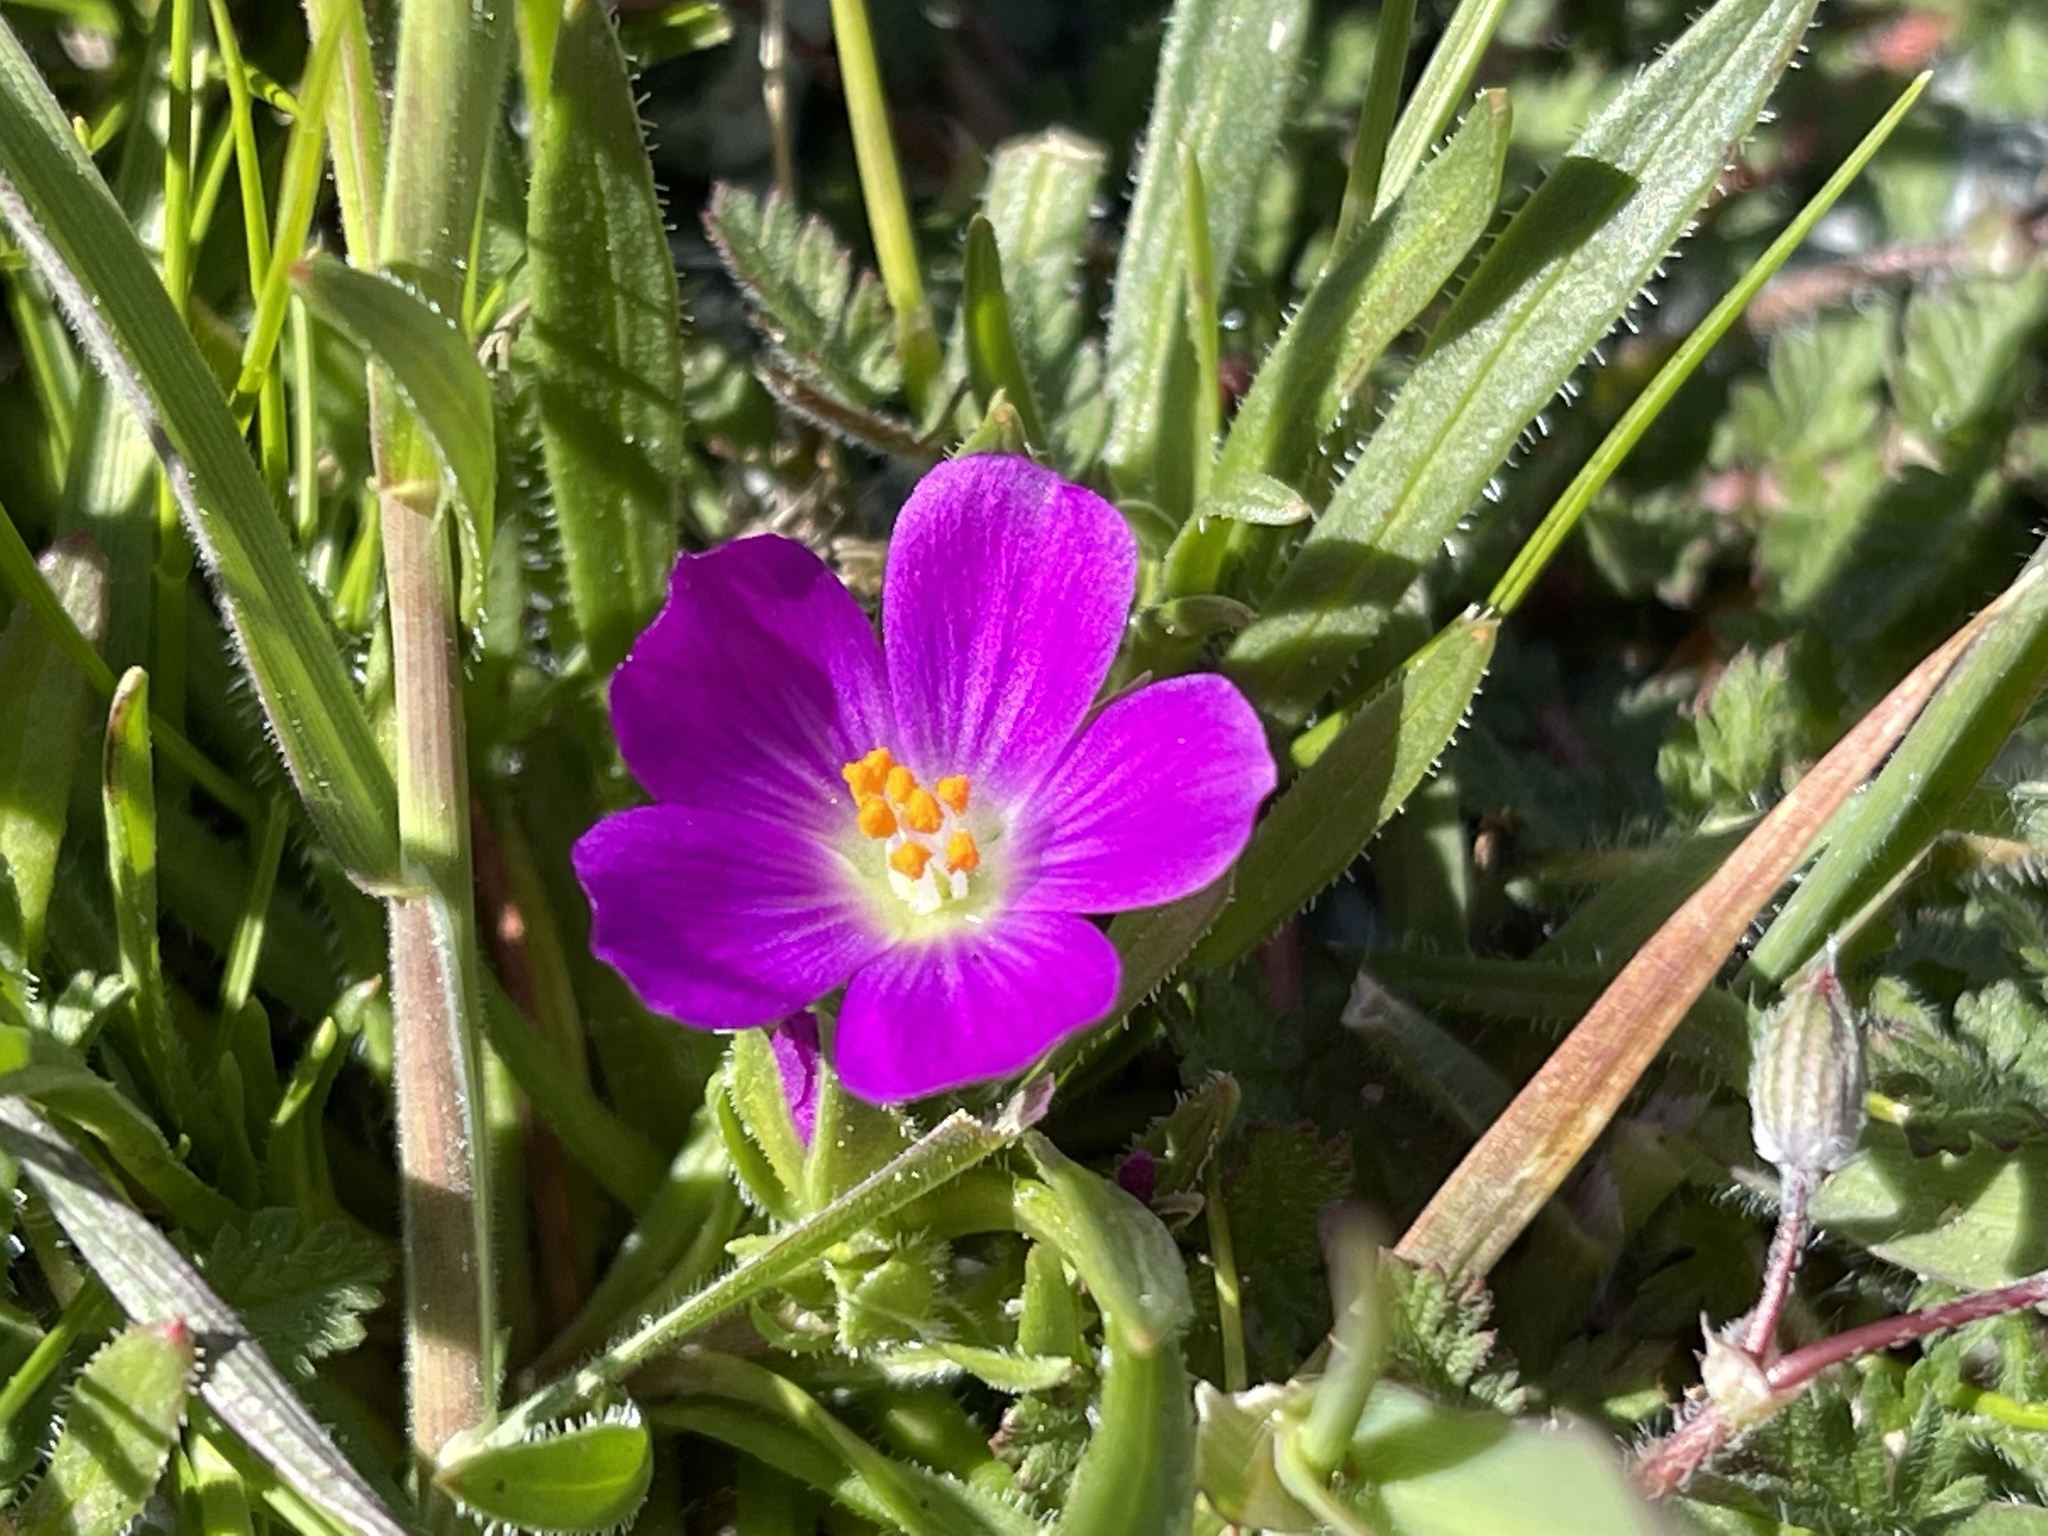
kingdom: Plantae
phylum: Tracheophyta
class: Magnoliopsida
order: Caryophyllales
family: Montiaceae
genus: Calandrinia
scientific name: Calandrinia menziesii
